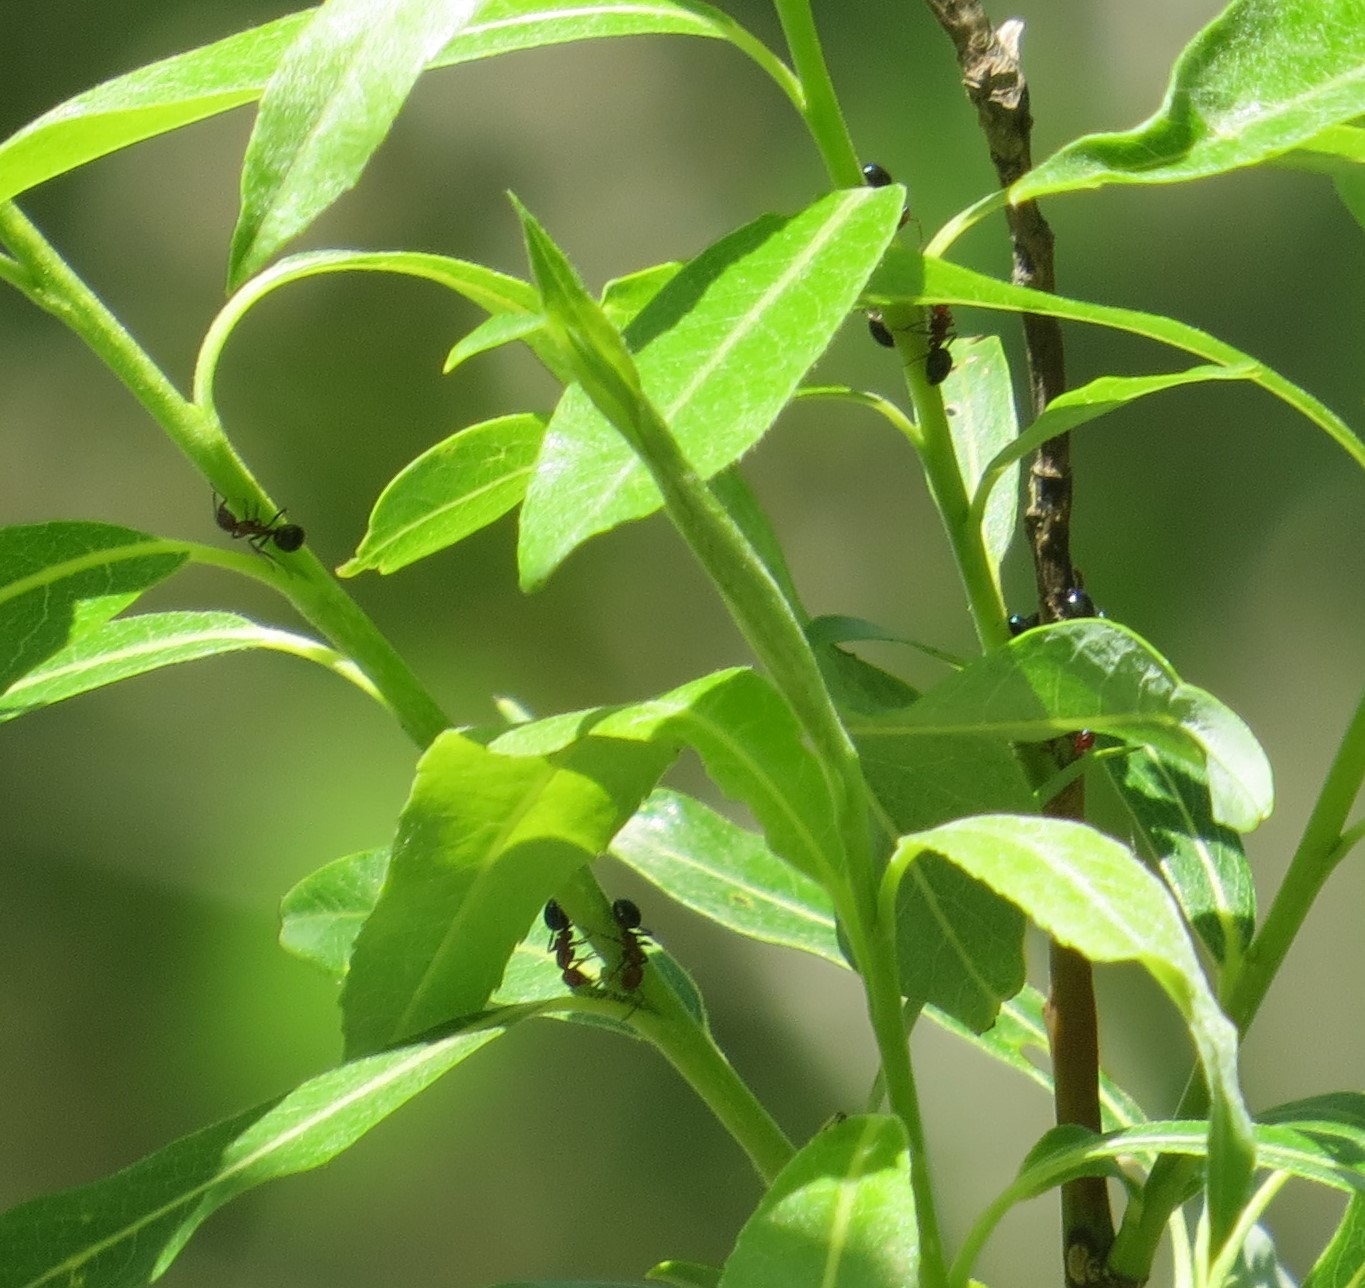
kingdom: Animalia
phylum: Arthropoda
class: Insecta
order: Hymenoptera
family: Formicidae
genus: Dolichoderus
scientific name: Dolichoderus mariae
